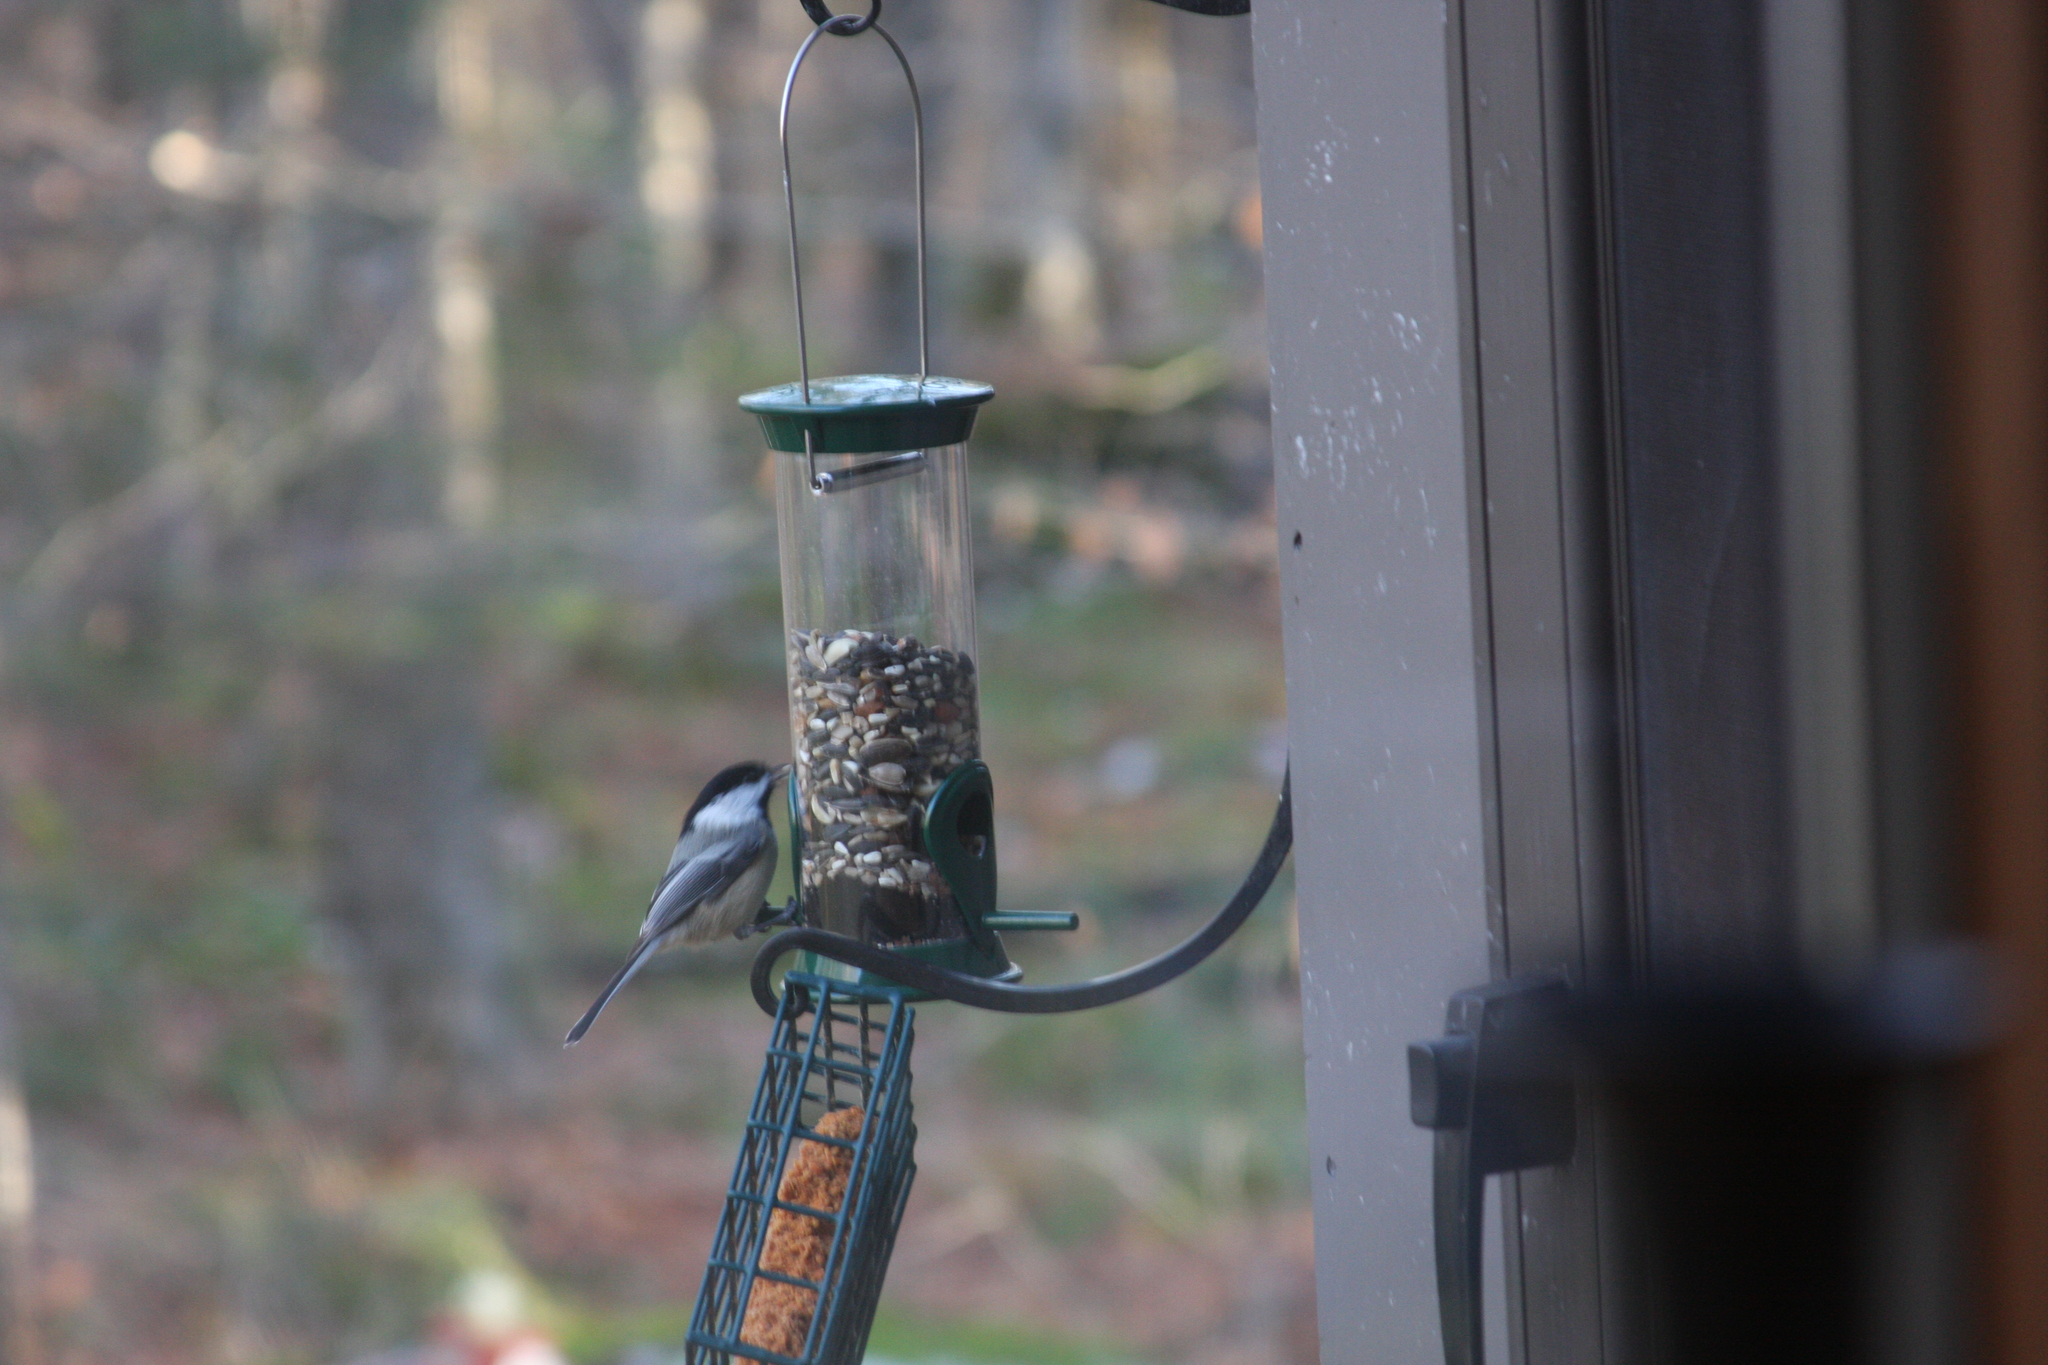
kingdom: Animalia
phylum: Chordata
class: Aves
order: Passeriformes
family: Paridae
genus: Poecile
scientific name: Poecile atricapillus
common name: Black-capped chickadee
